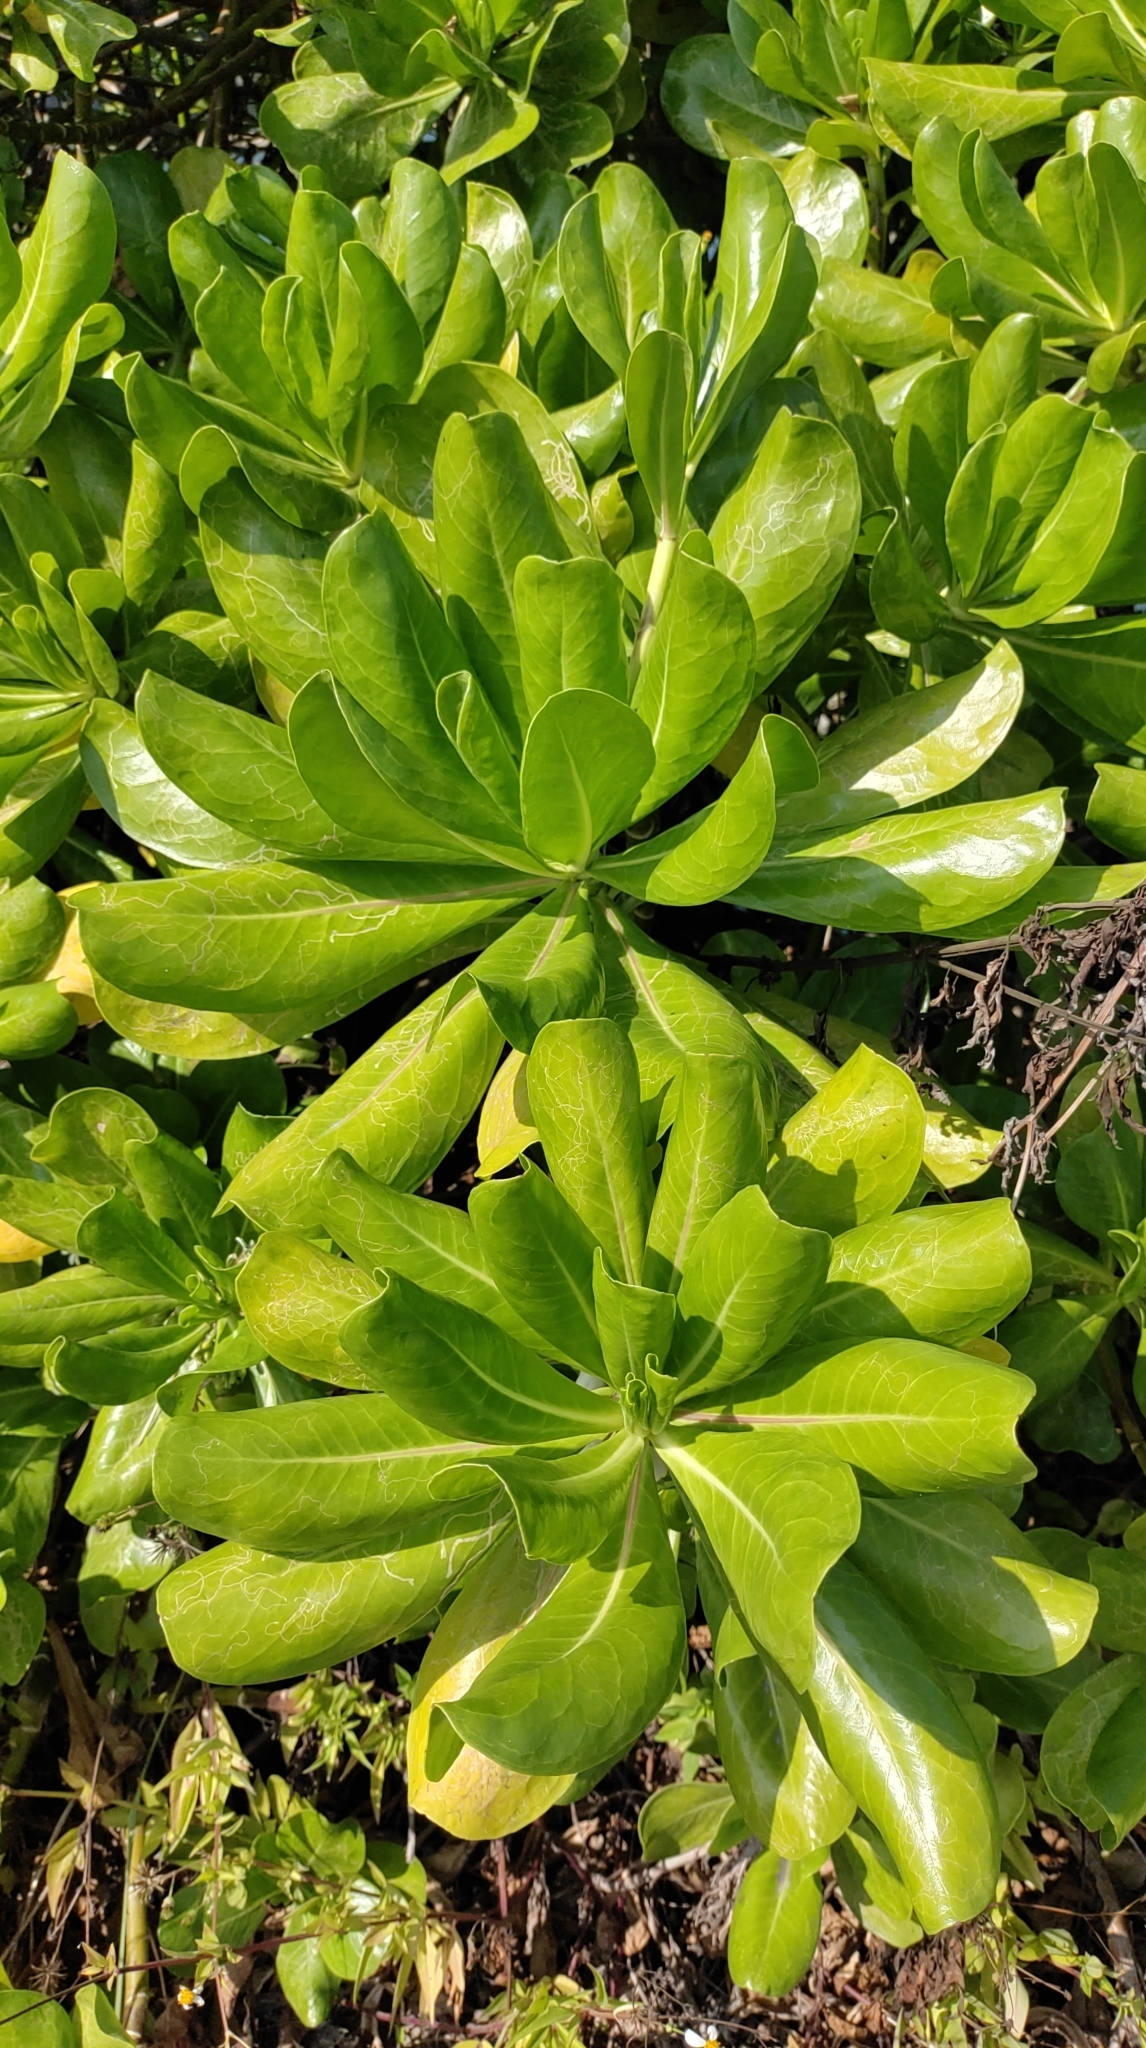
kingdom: Plantae
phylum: Tracheophyta
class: Magnoliopsida
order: Asterales
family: Goodeniaceae
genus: Scaevola
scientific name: Scaevola taccada
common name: Sea lettucetree
